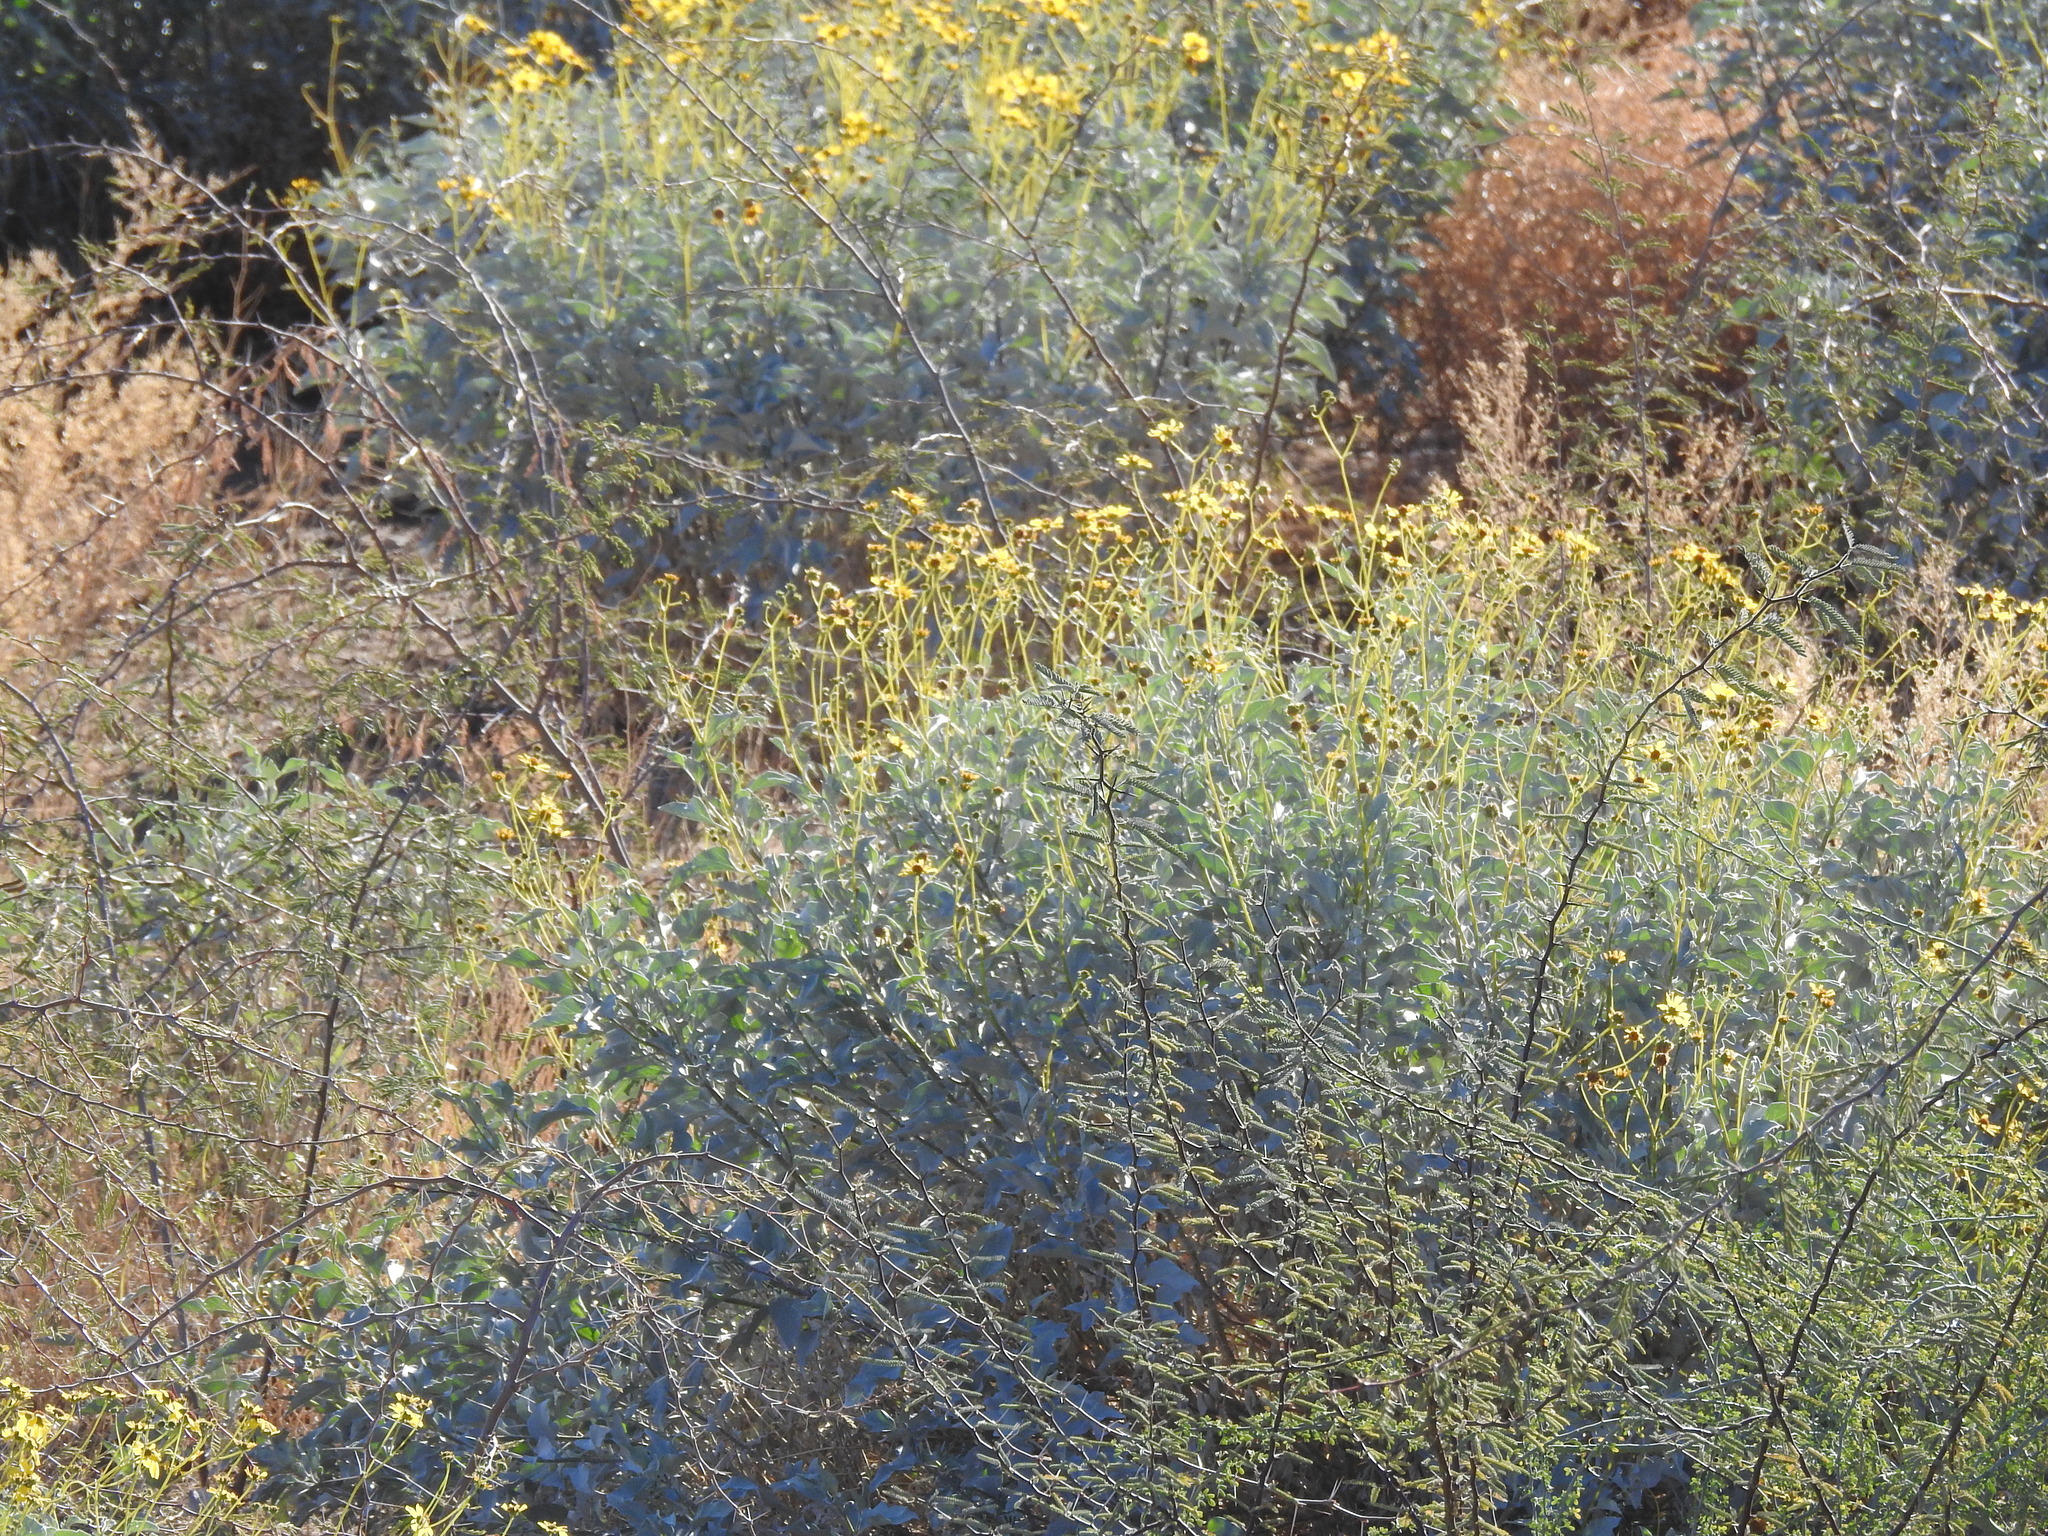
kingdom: Plantae
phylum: Tracheophyta
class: Magnoliopsida
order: Asterales
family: Asteraceae
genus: Encelia
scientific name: Encelia farinosa
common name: Brittlebush
